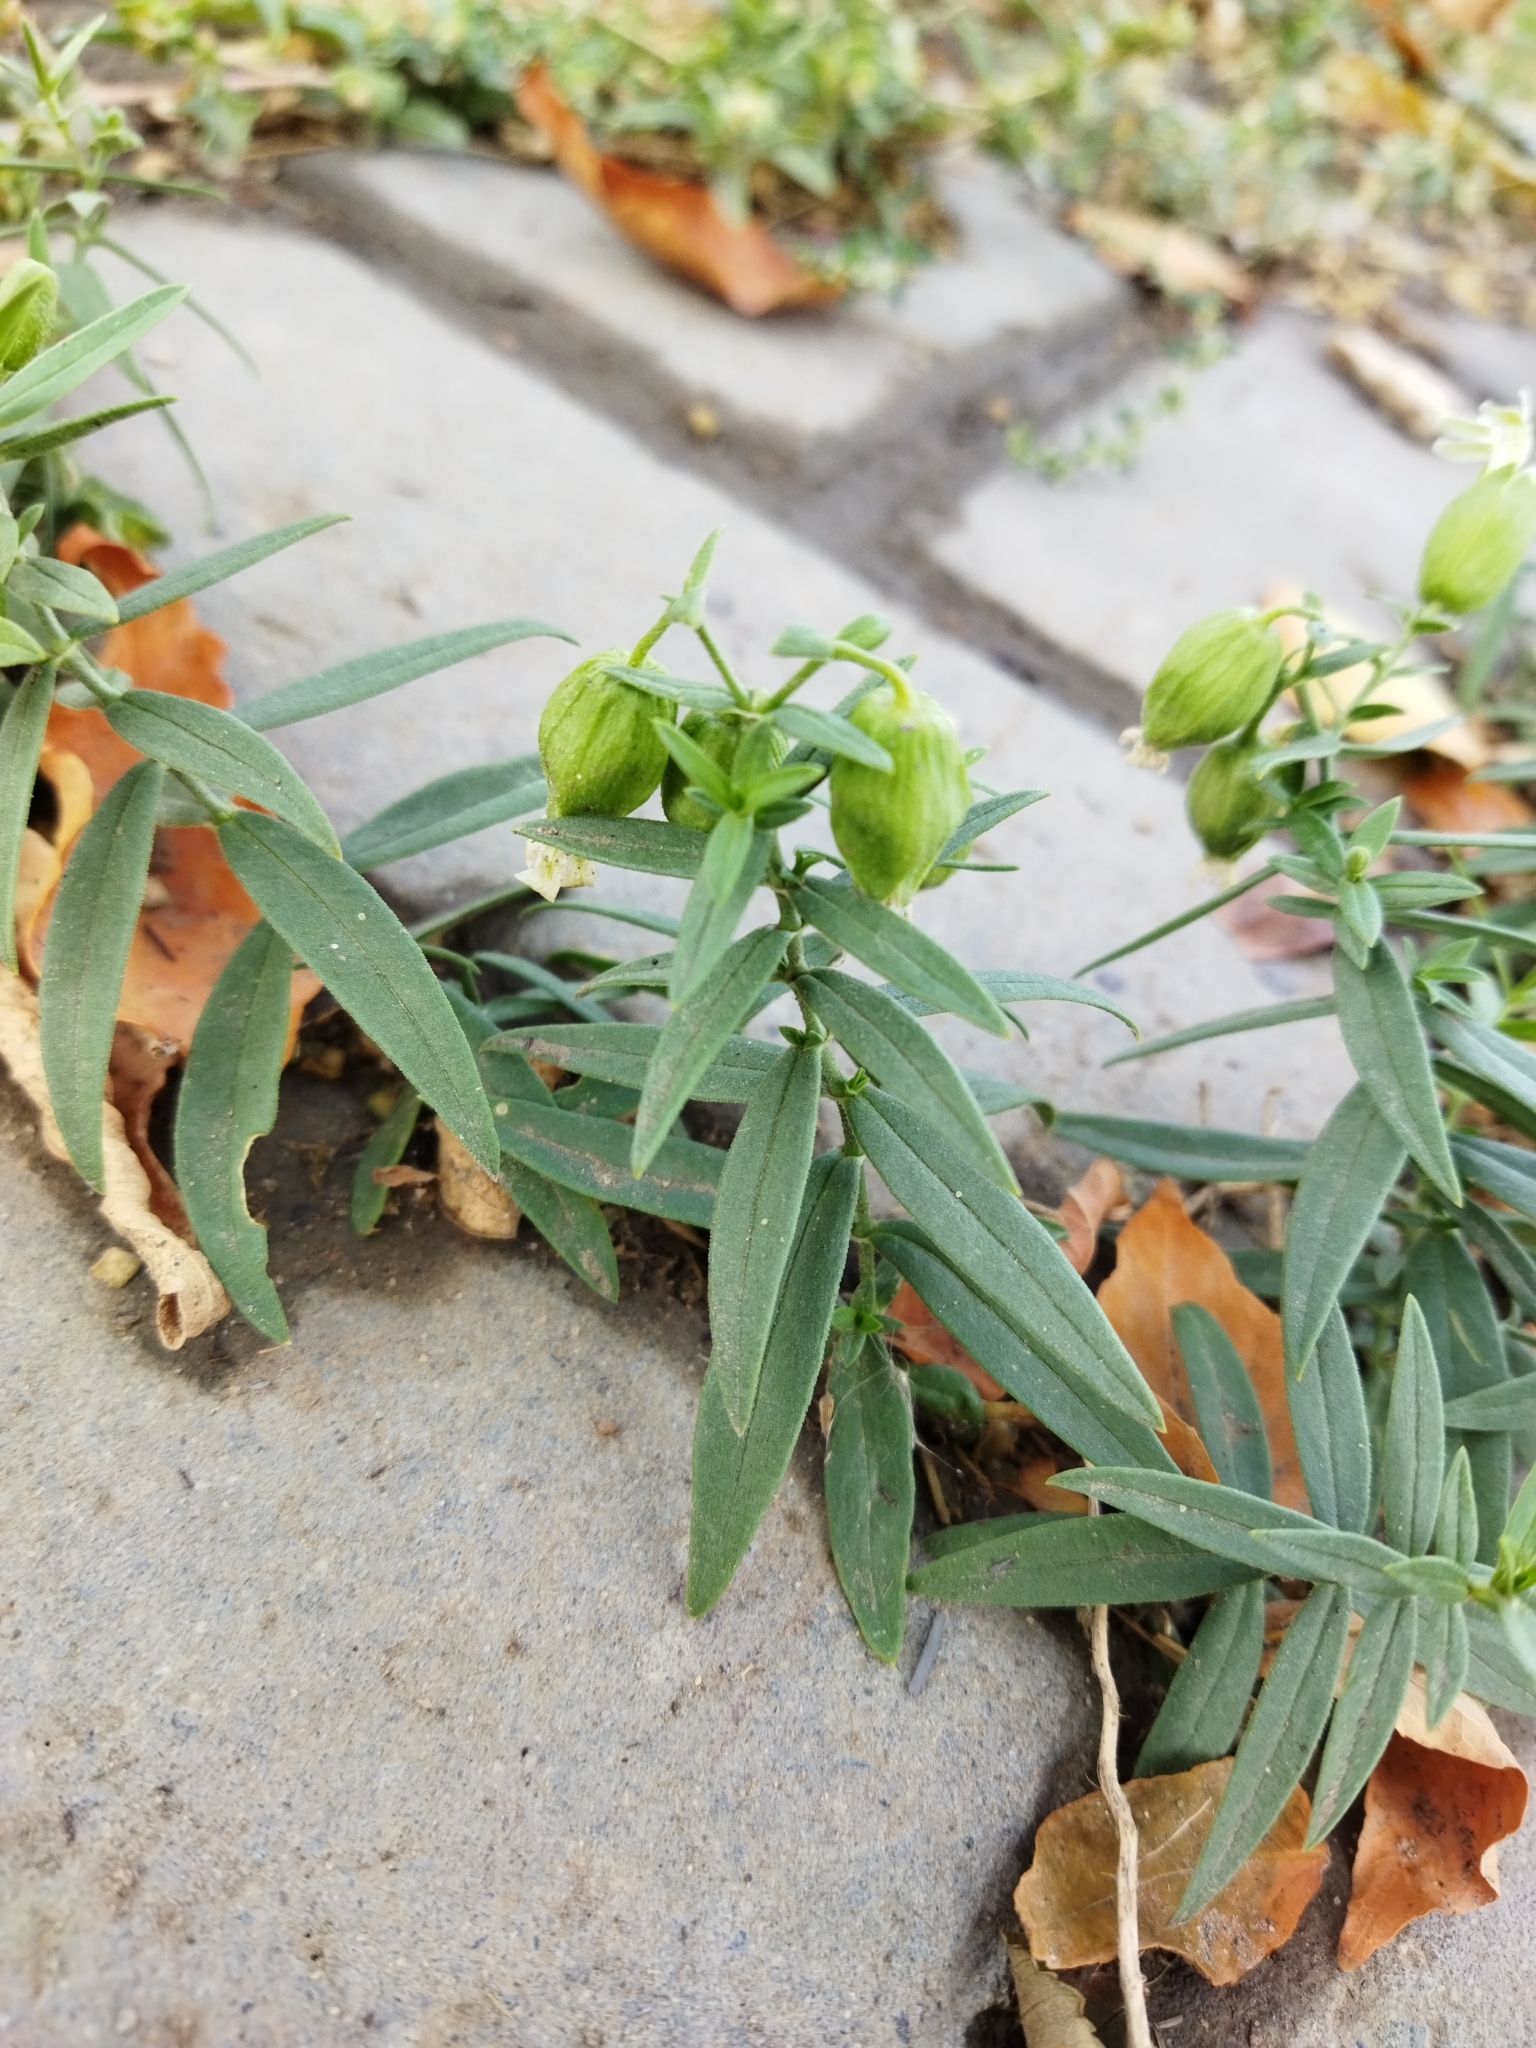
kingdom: Plantae
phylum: Tracheophyta
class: Magnoliopsida
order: Caryophyllales
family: Caryophyllaceae
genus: Silene
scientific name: Silene procumbens
